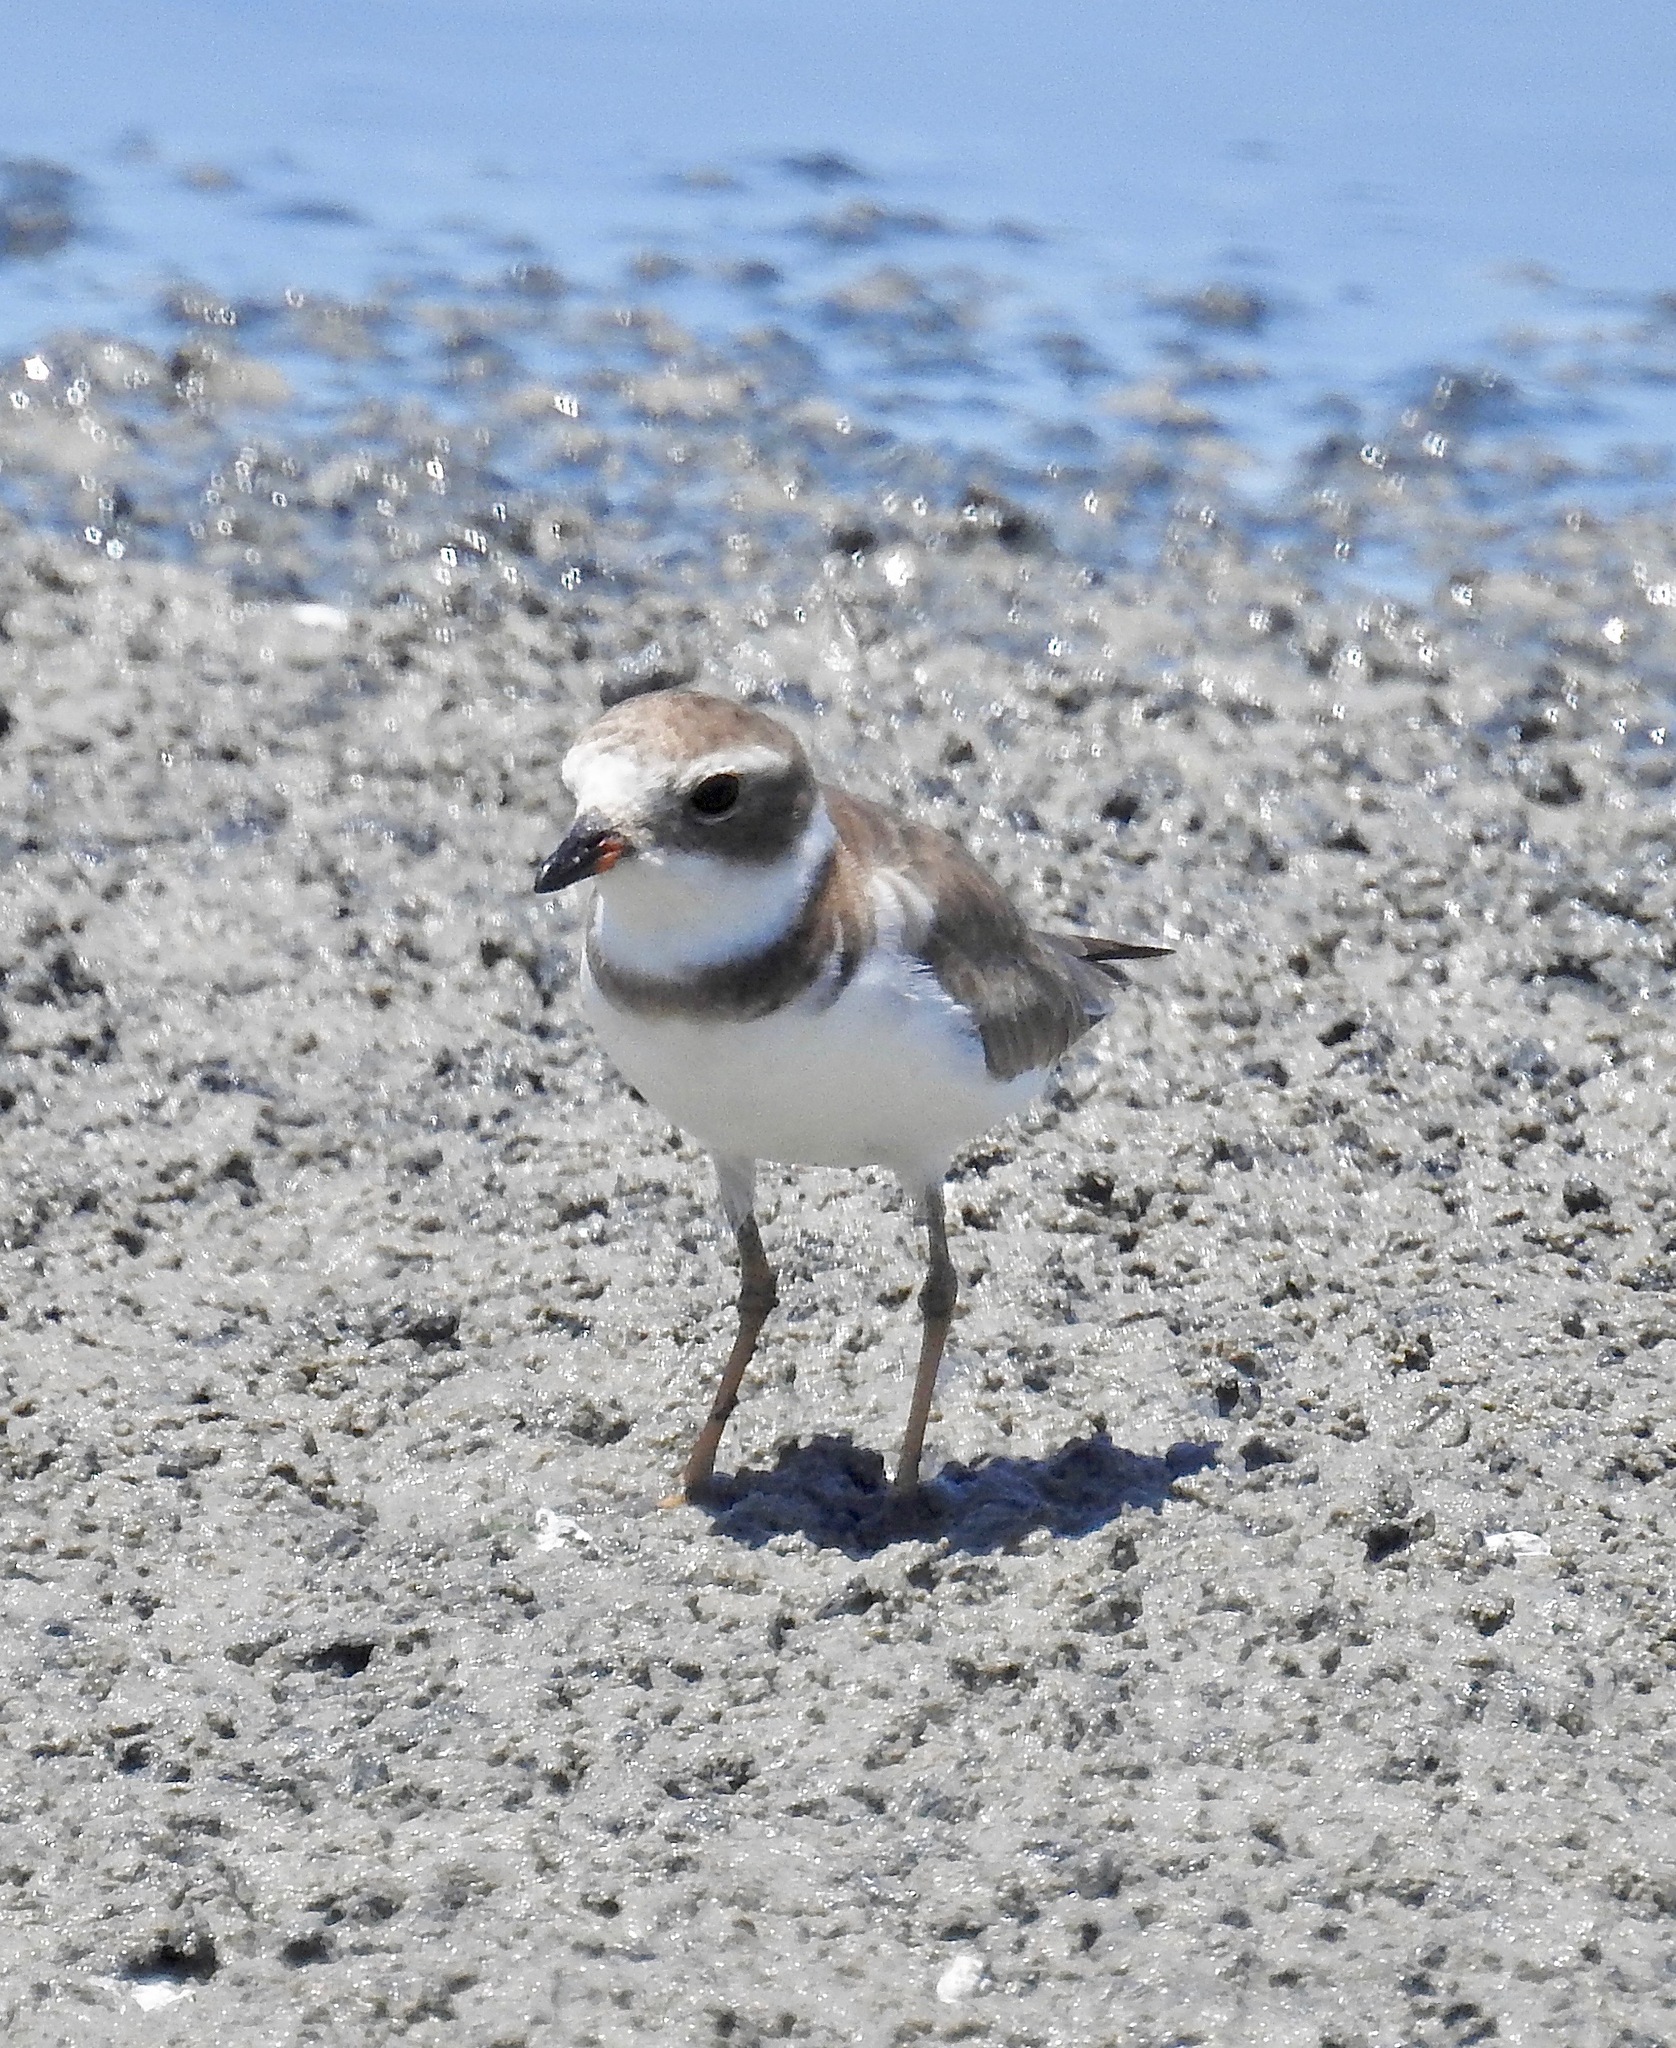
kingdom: Animalia
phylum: Chordata
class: Aves
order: Charadriiformes
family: Charadriidae
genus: Charadrius
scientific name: Charadrius semipalmatus
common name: Semipalmated plover
